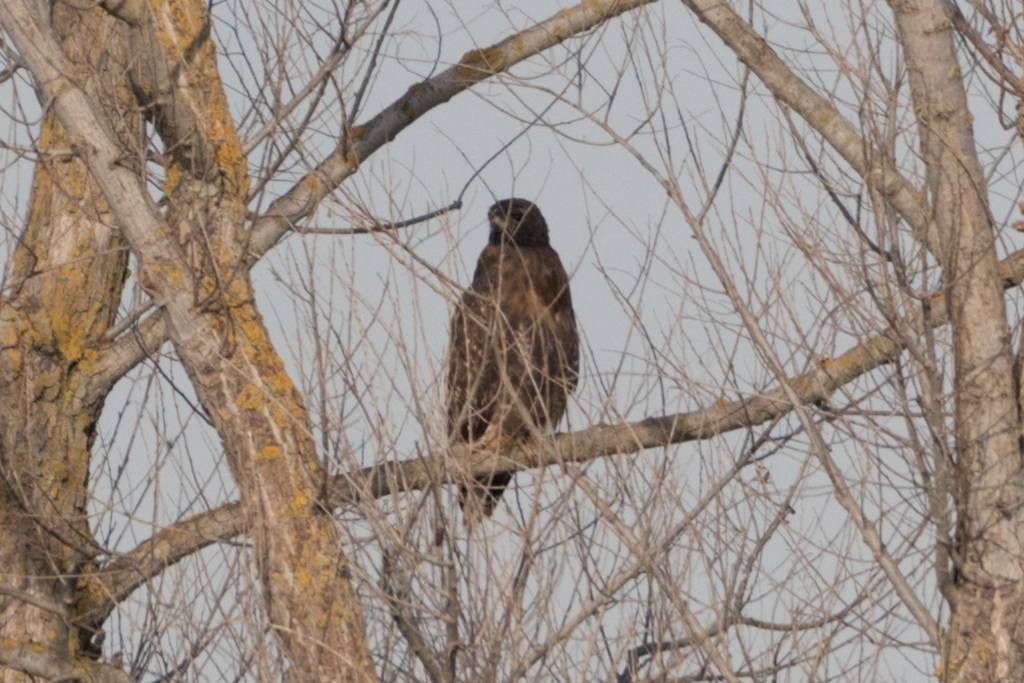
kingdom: Animalia
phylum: Chordata
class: Aves
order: Accipitriformes
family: Accipitridae
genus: Buteo
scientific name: Buteo jamaicensis
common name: Red-tailed hawk
